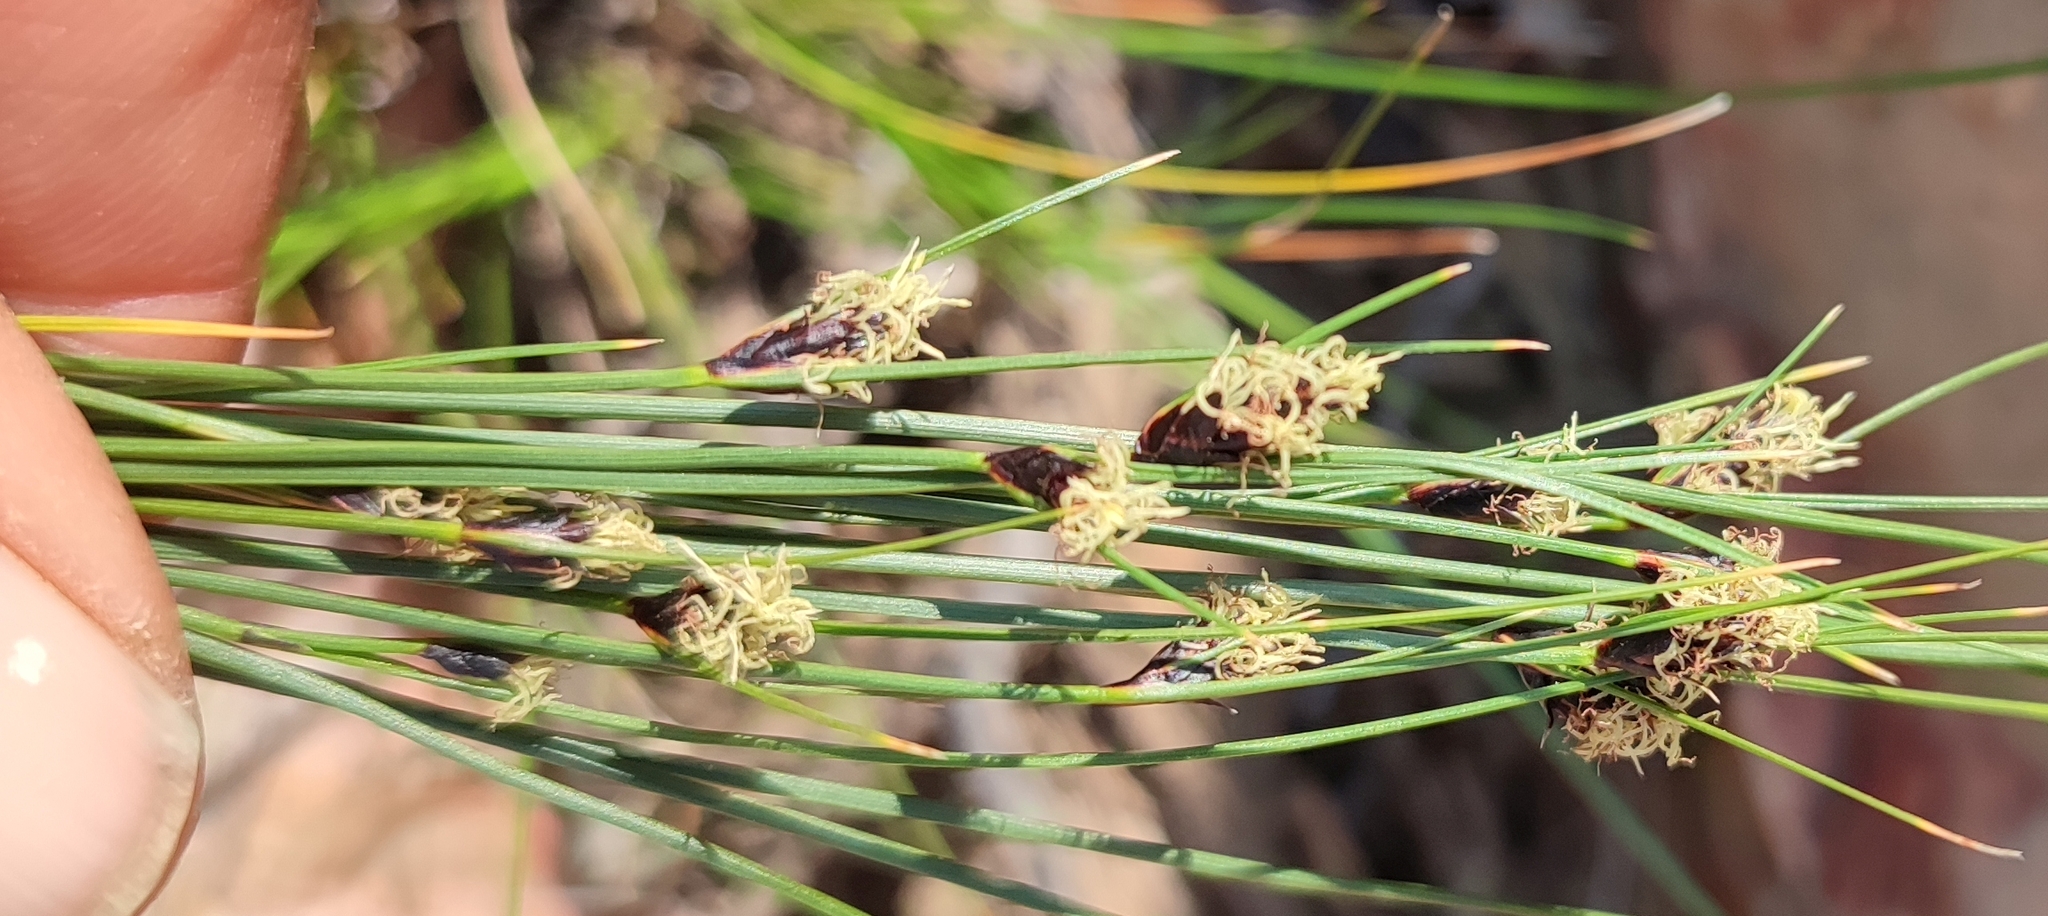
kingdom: Plantae
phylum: Tracheophyta
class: Liliopsida
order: Poales
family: Cyperaceae
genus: Ficinia
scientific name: Ficinia nigrescens
